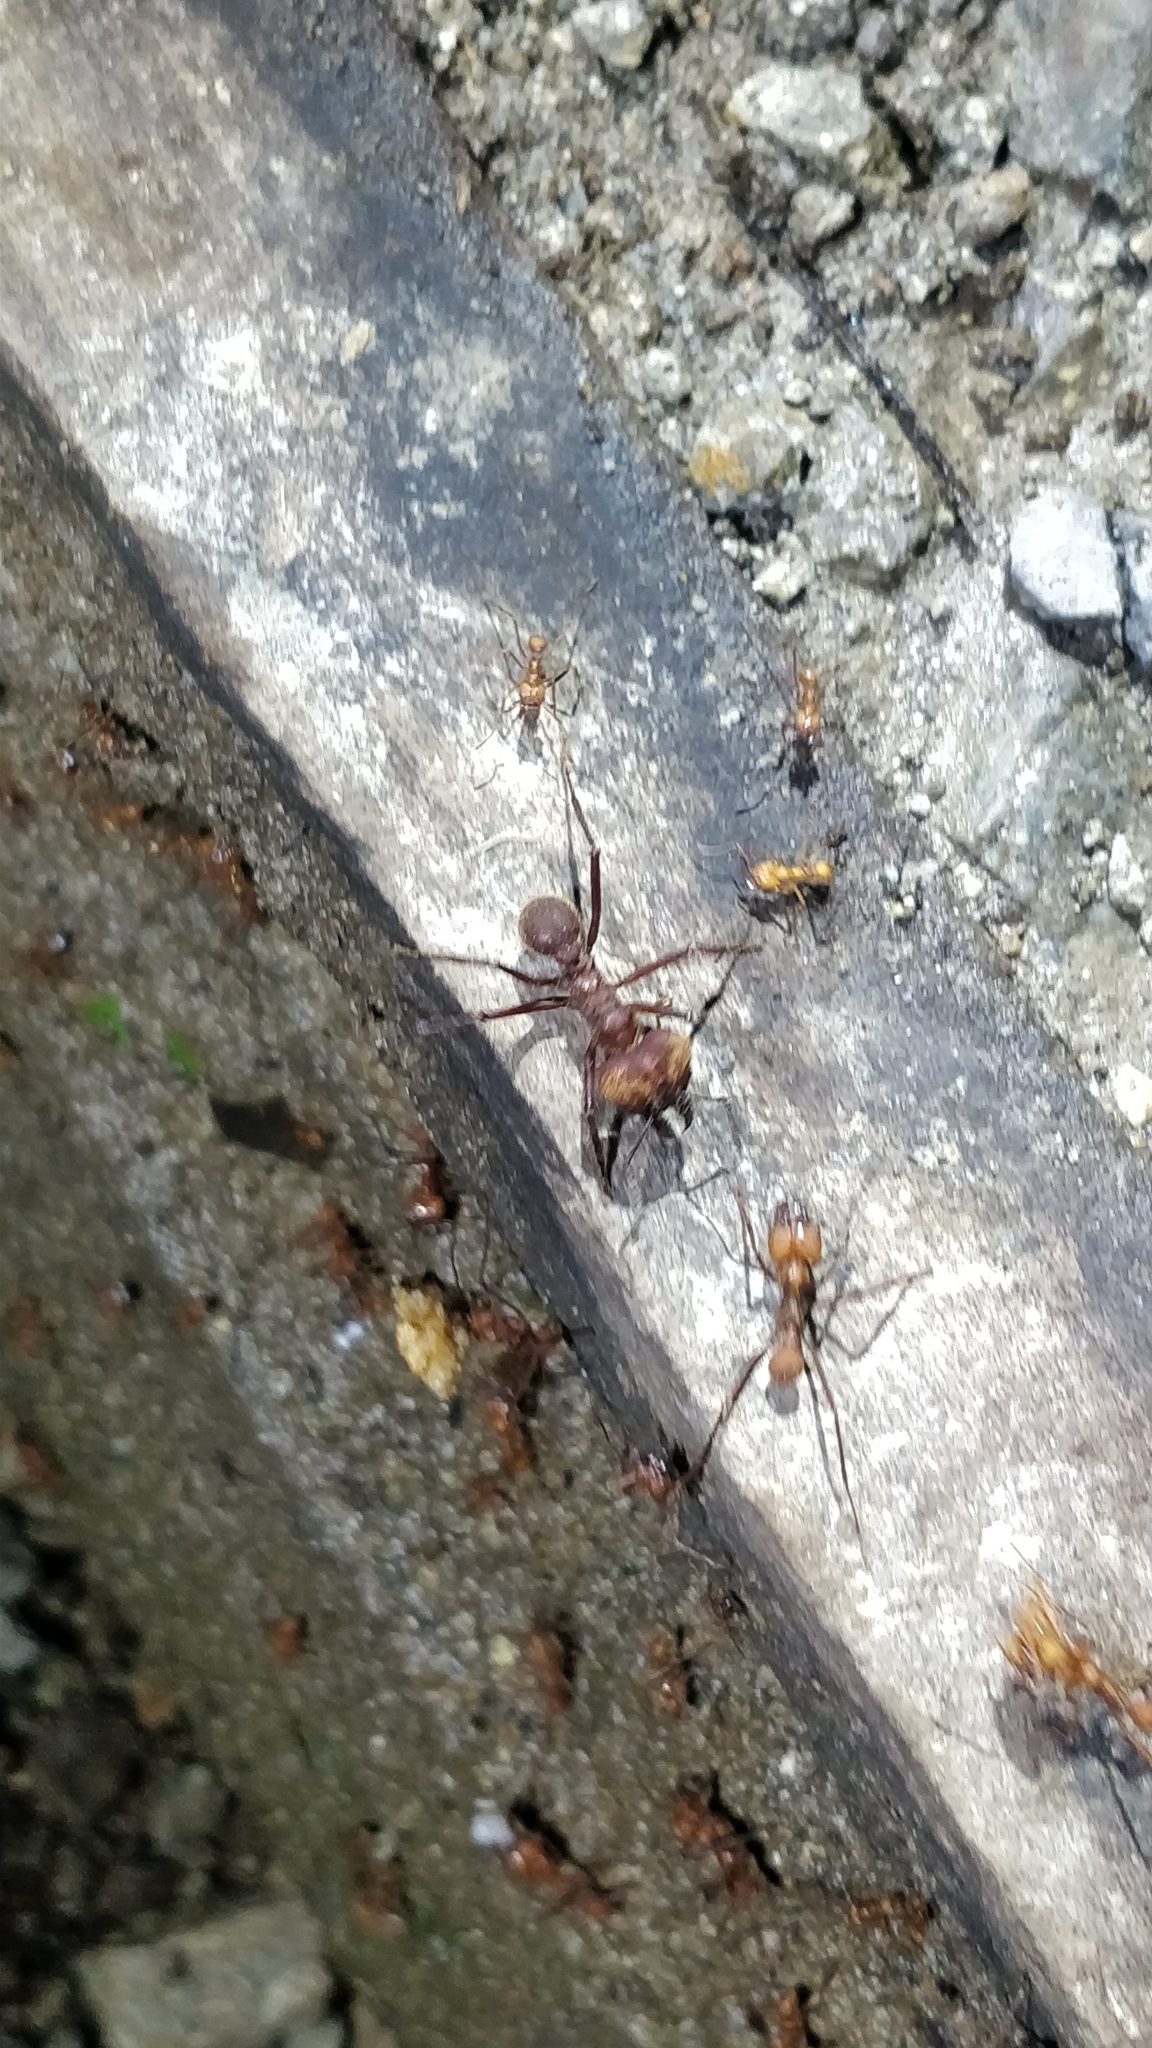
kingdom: Animalia
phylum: Arthropoda
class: Insecta
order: Hymenoptera
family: Formicidae
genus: Atta
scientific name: Atta cephalotes
